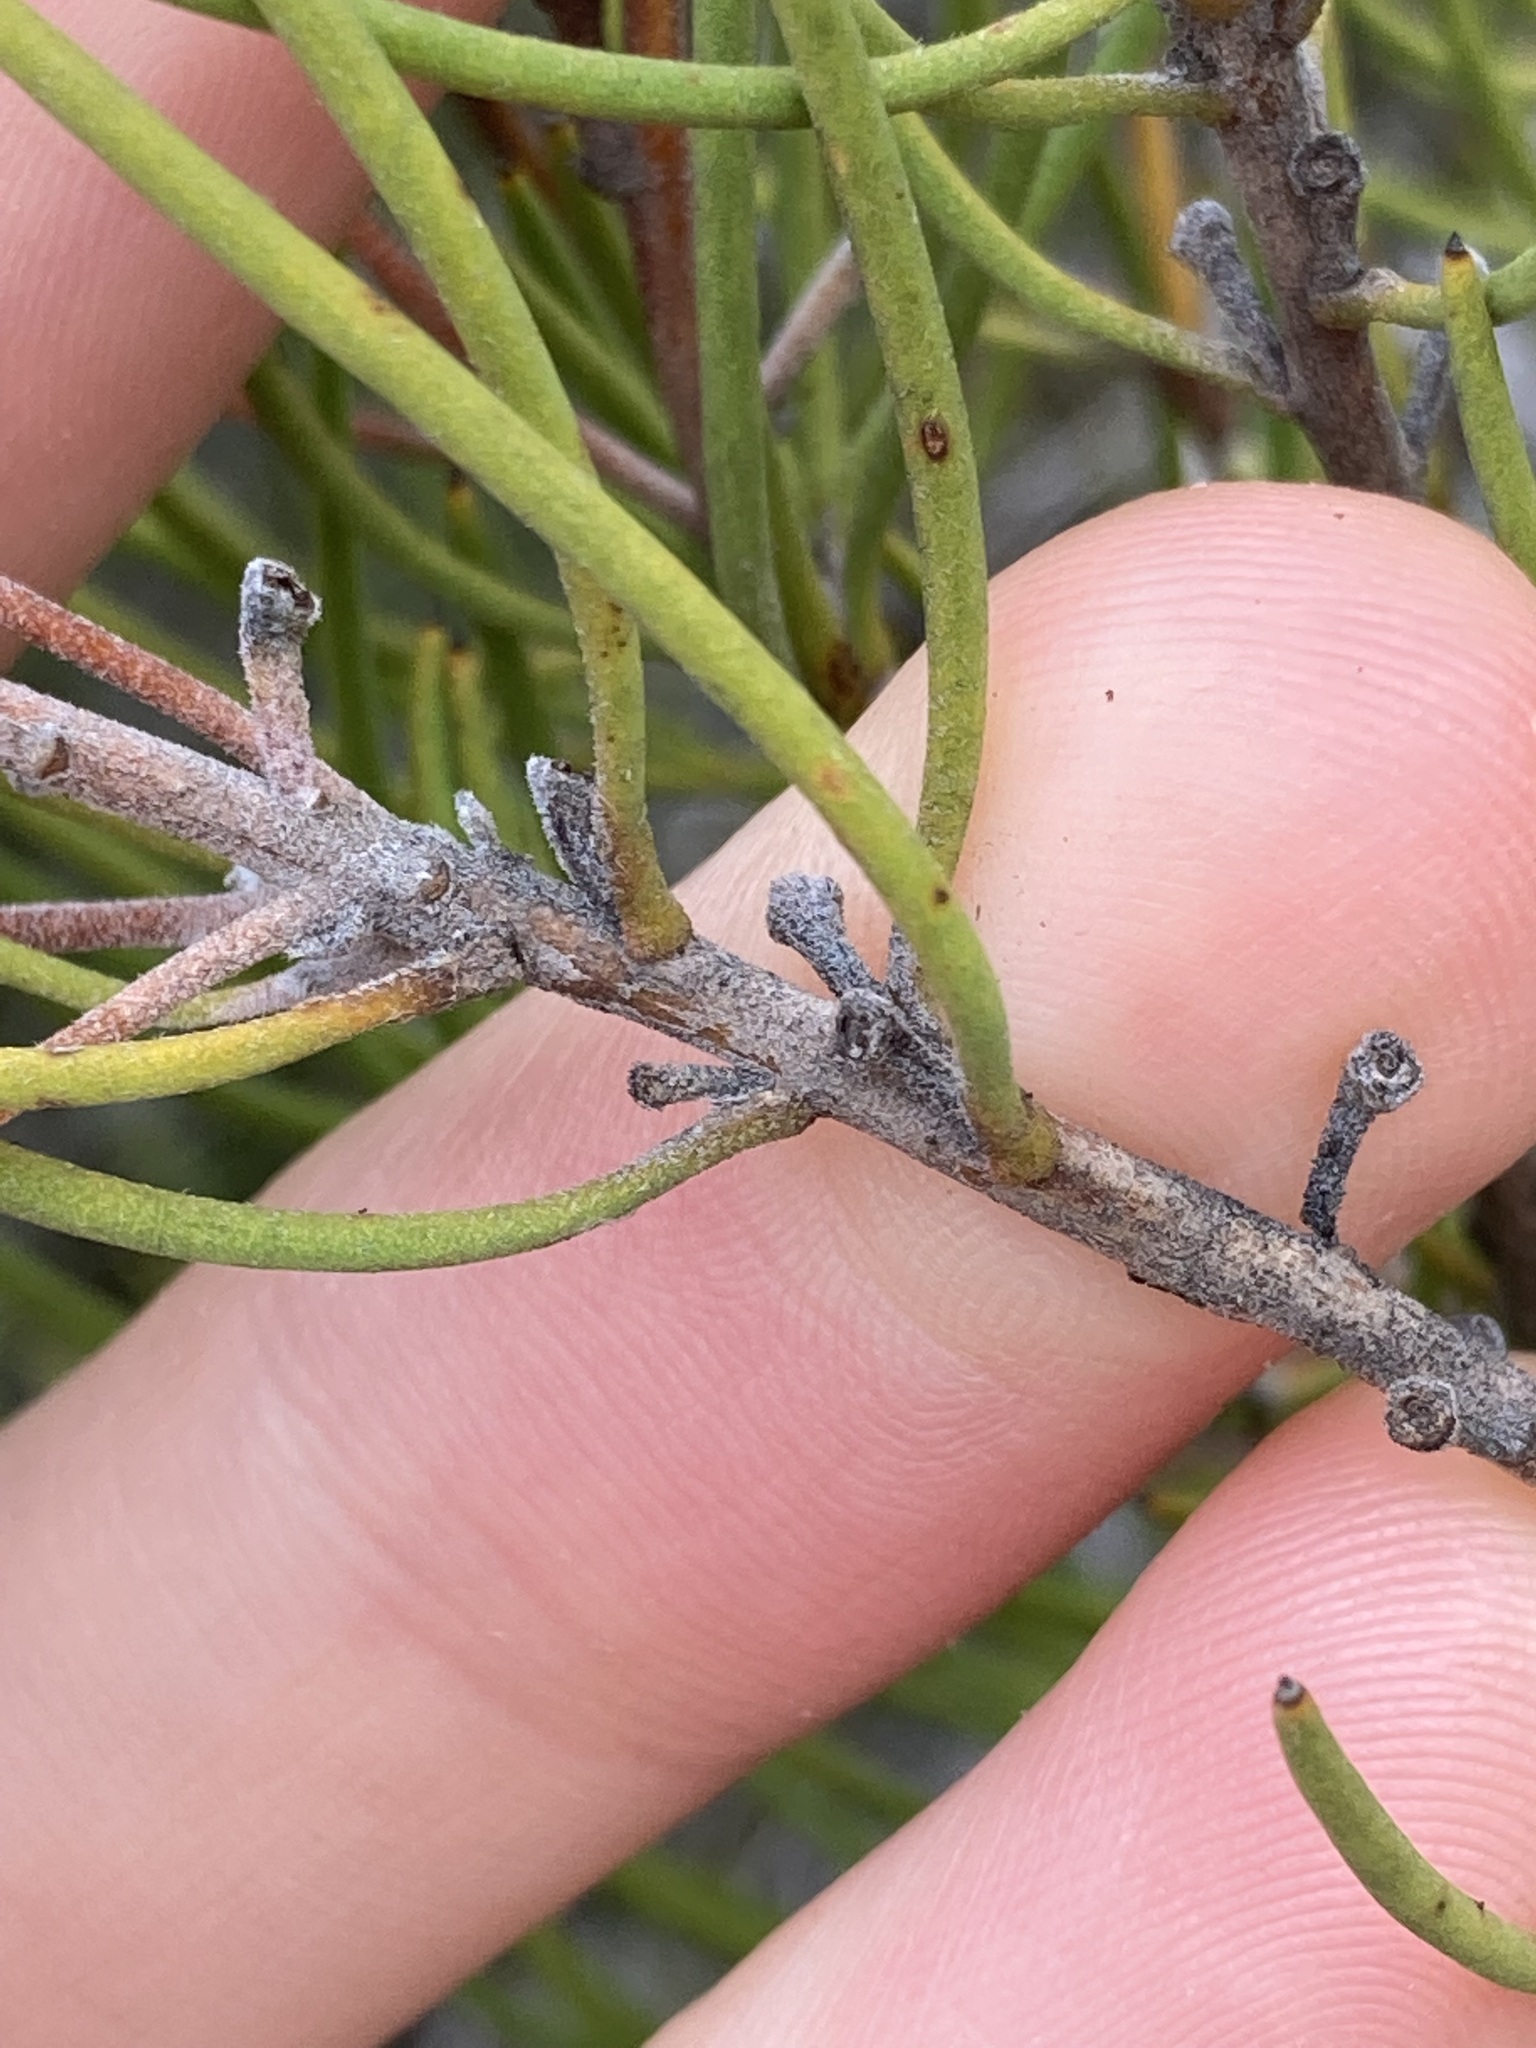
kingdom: Plantae
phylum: Tracheophyta
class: Magnoliopsida
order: Proteales
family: Proteaceae
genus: Persoonia
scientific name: Persoonia teretifolia
